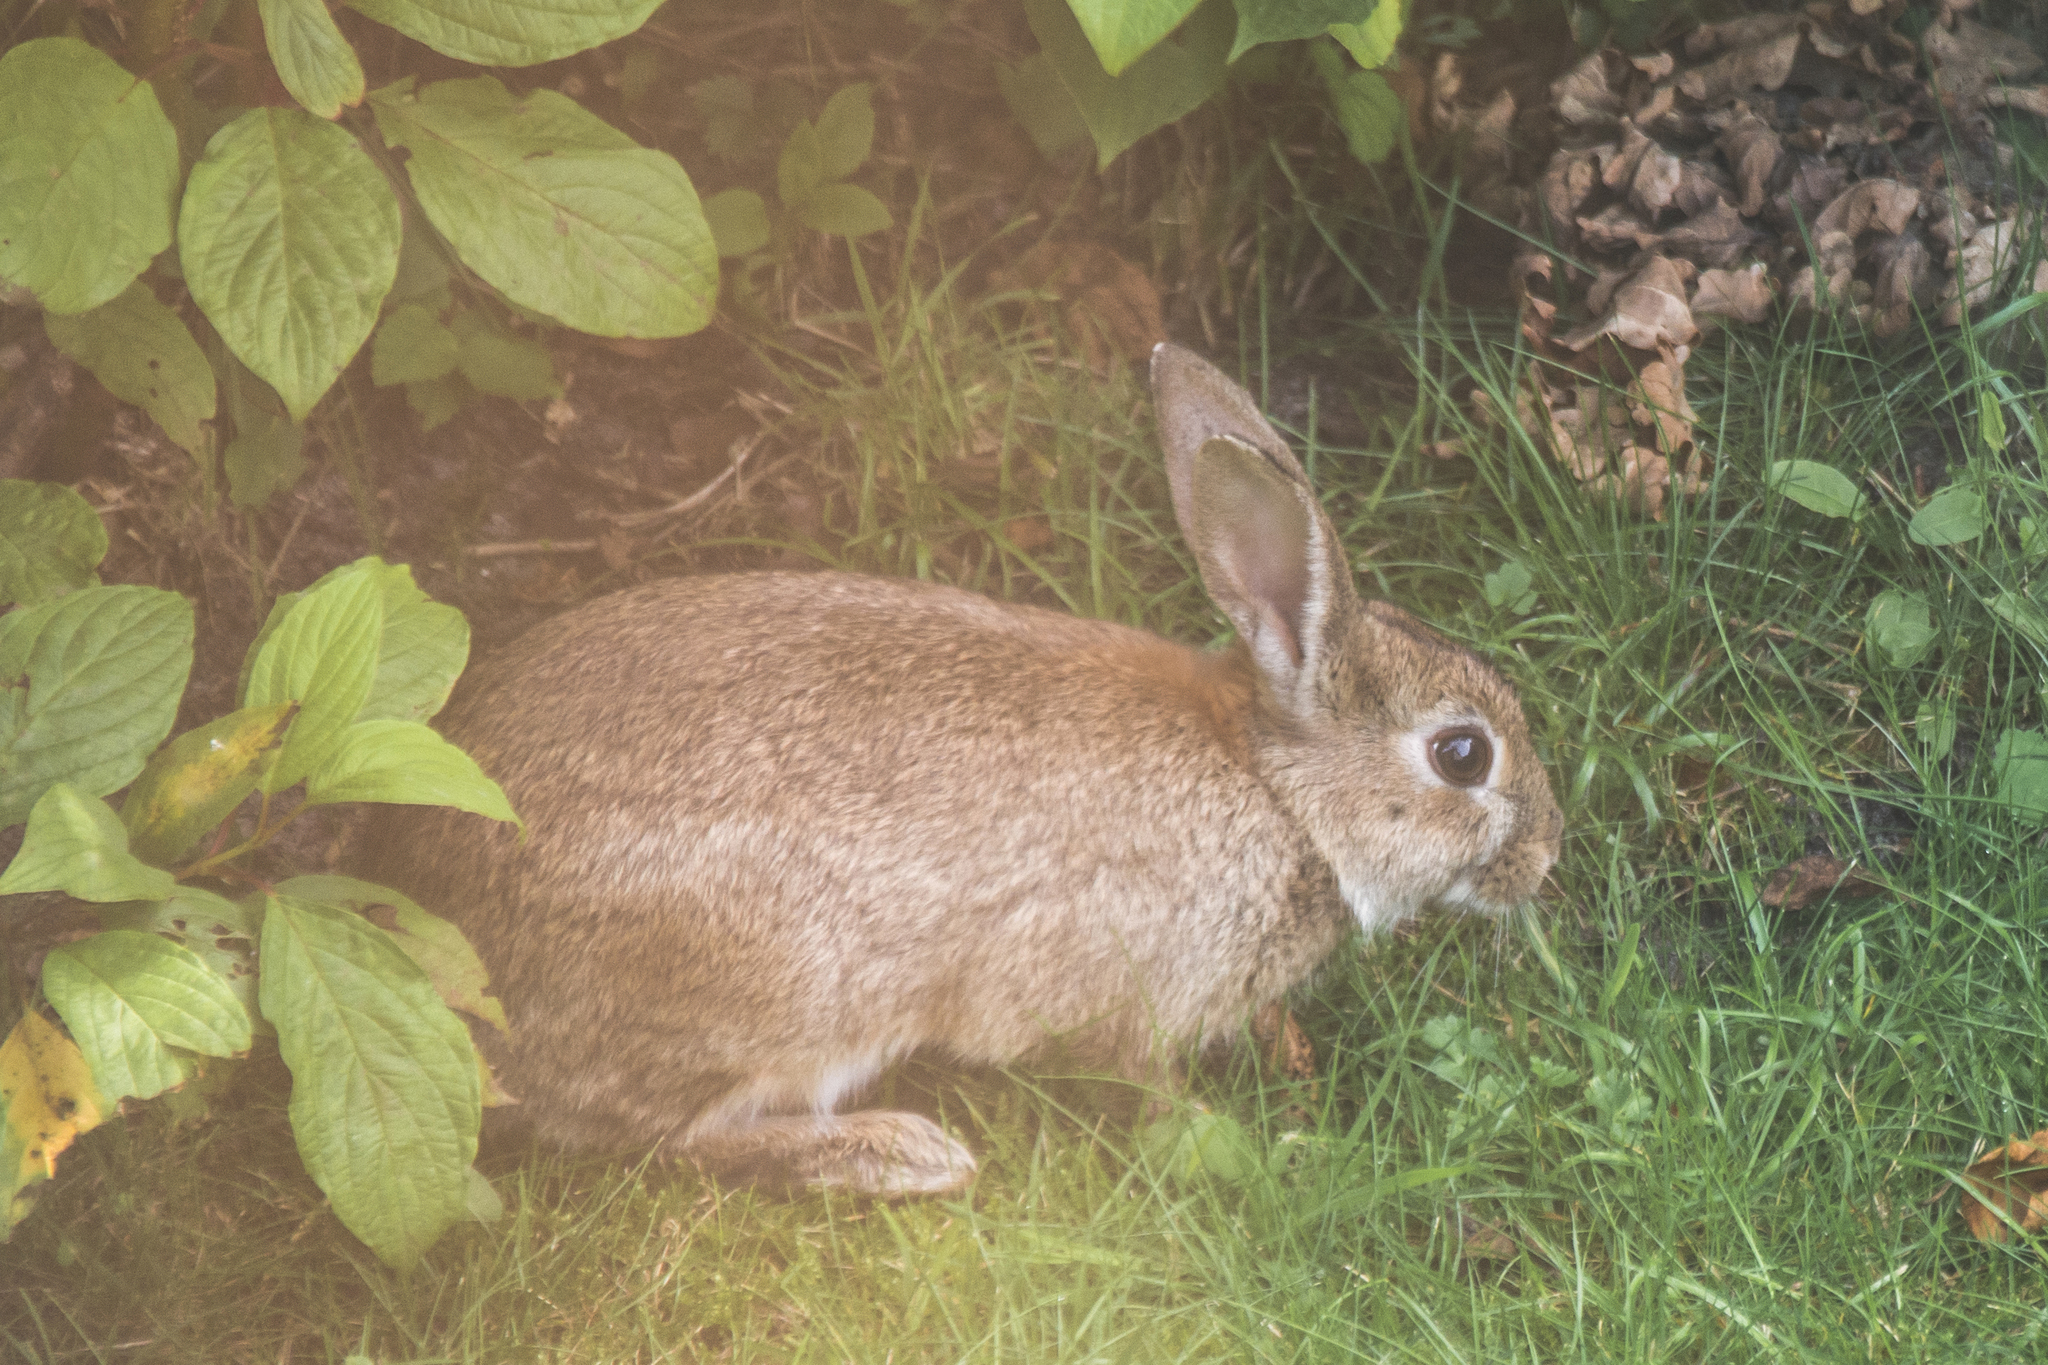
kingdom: Animalia
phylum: Chordata
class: Mammalia
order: Lagomorpha
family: Leporidae
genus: Oryctolagus
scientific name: Oryctolagus cuniculus
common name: European rabbit
